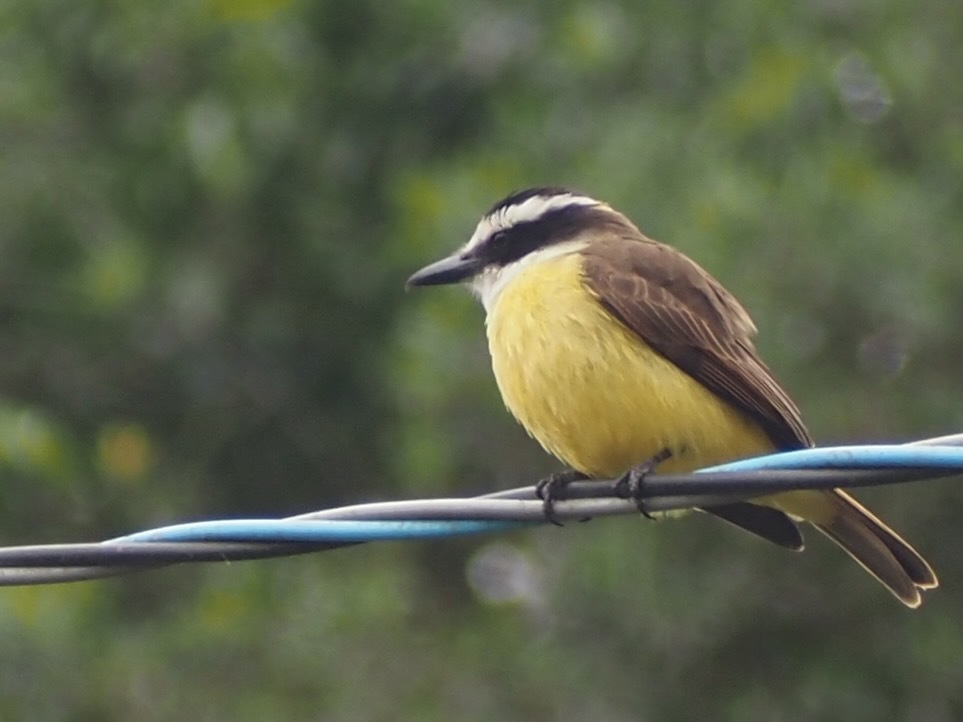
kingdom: Animalia
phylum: Chordata
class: Aves
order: Passeriformes
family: Tyrannidae
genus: Pitangus
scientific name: Pitangus sulphuratus
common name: Great kiskadee
